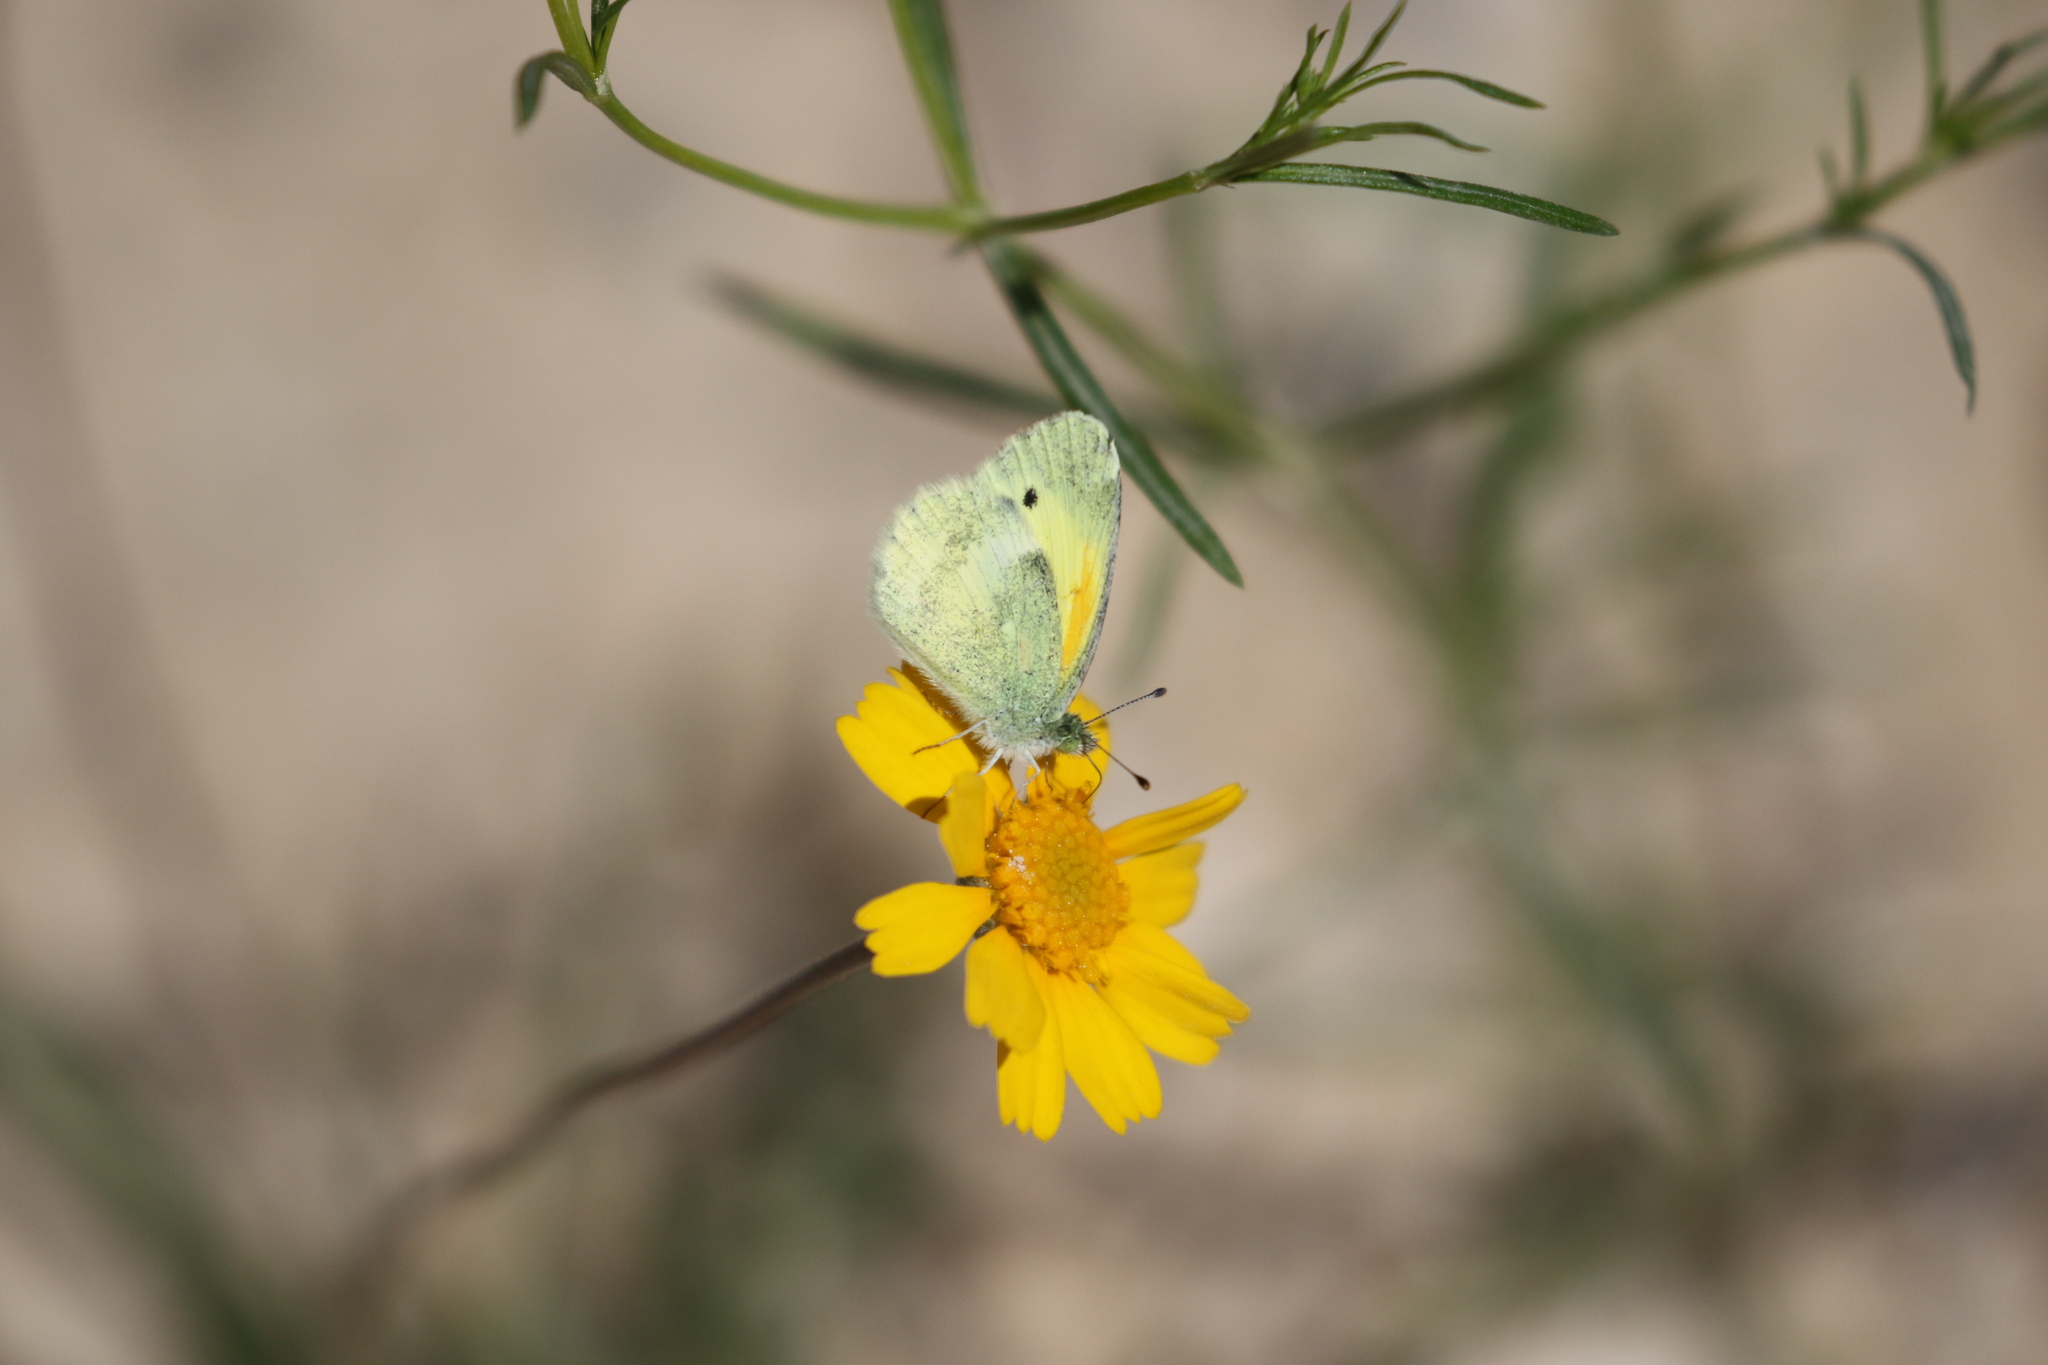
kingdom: Animalia
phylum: Arthropoda
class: Insecta
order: Lepidoptera
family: Pieridae
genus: Nathalis
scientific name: Nathalis iole
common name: Dainty sulphur
